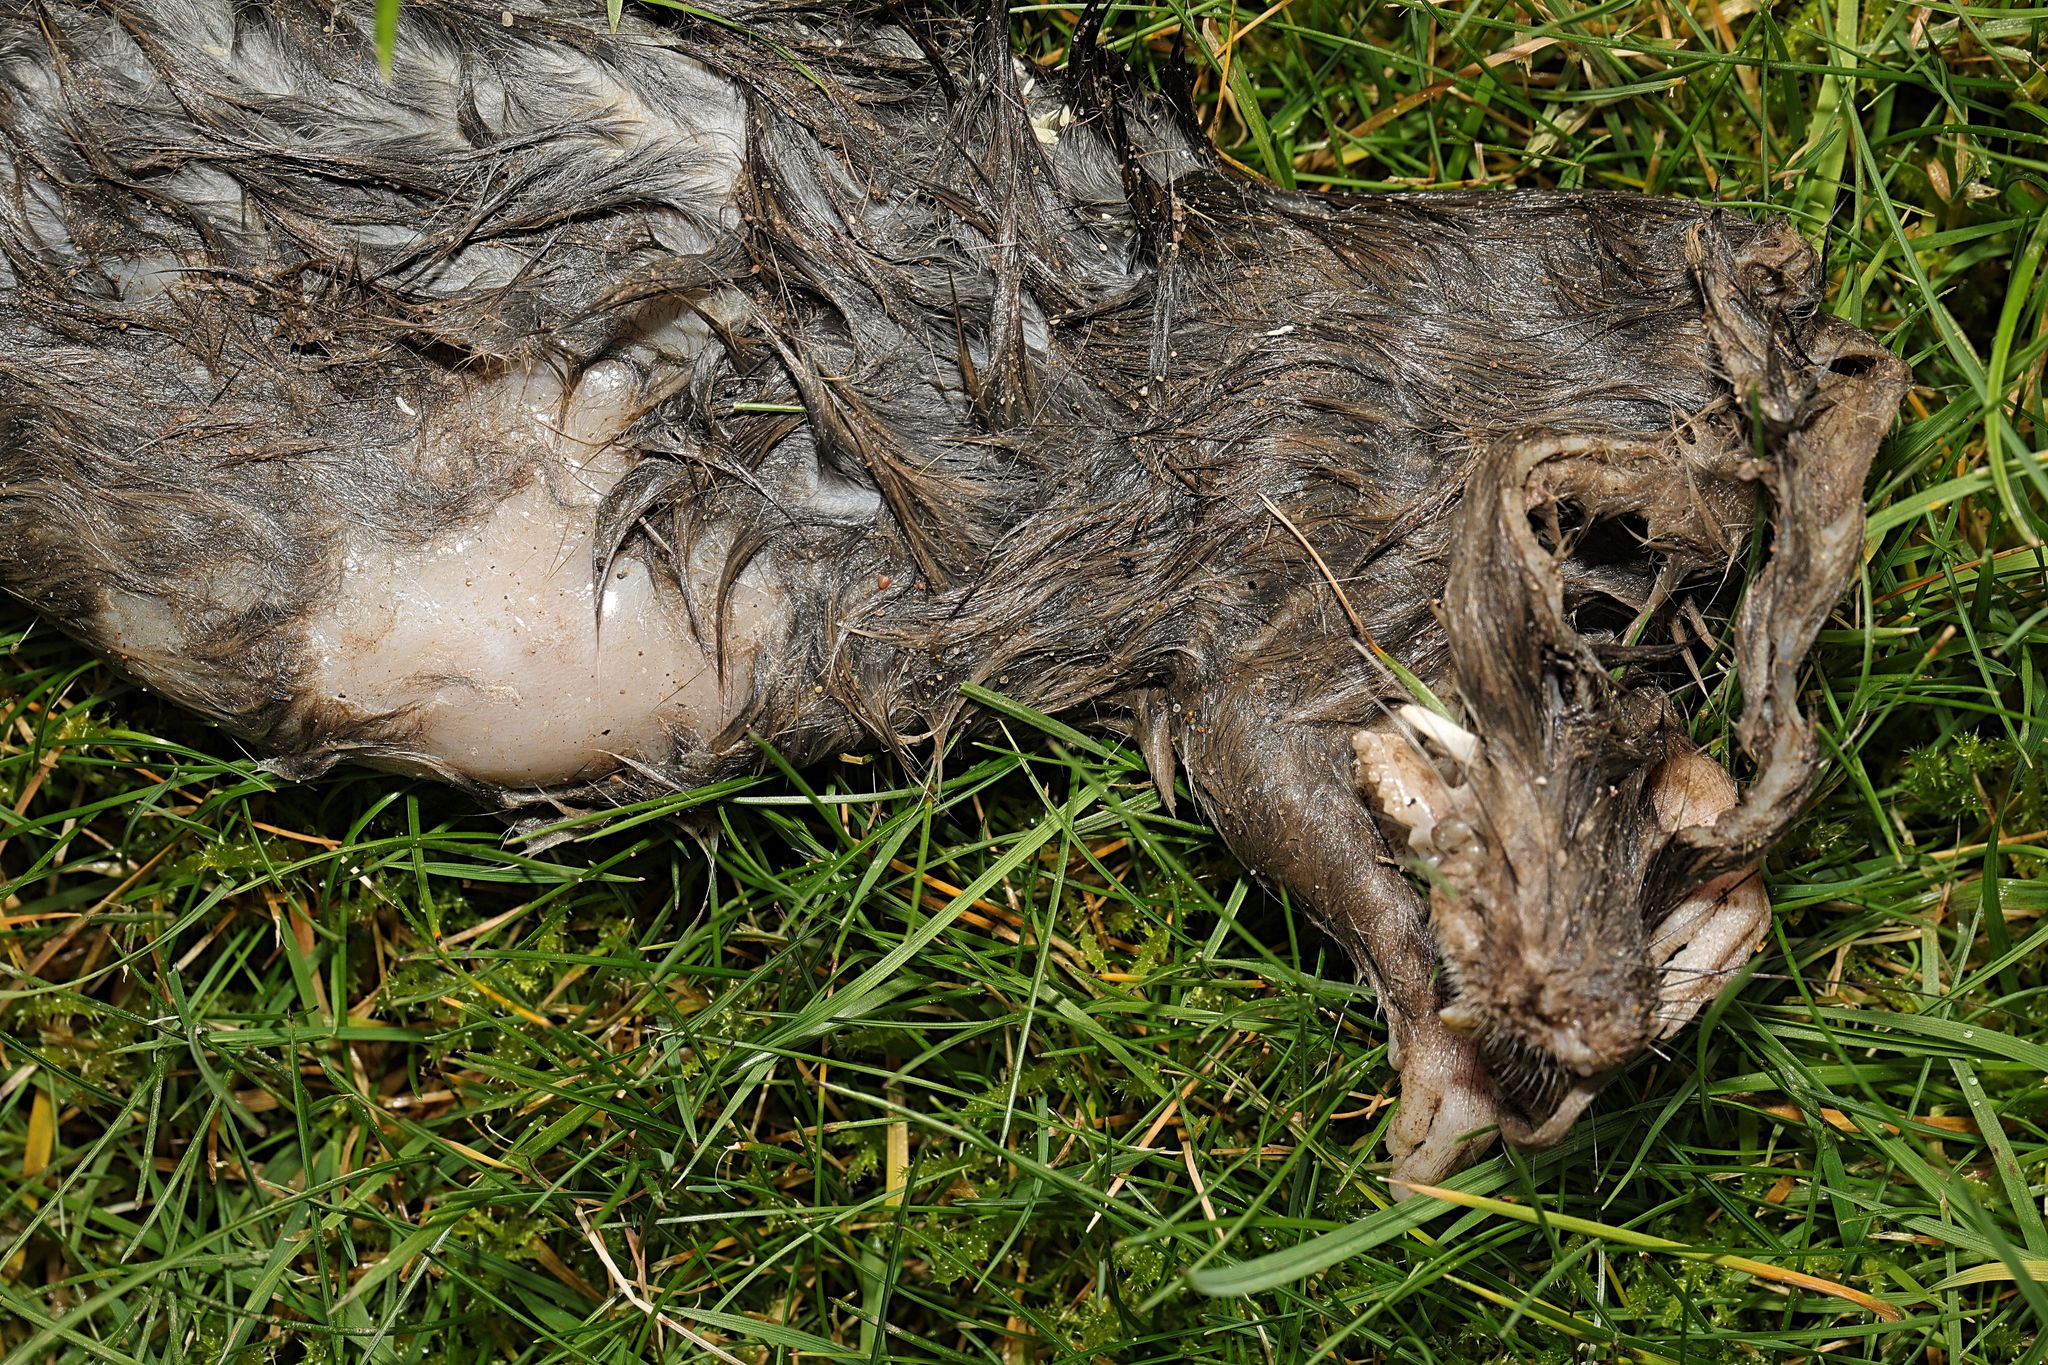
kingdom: Animalia
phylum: Chordata
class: Mammalia
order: Rodentia
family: Muridae
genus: Rattus
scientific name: Rattus norvegicus
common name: Brown rat
